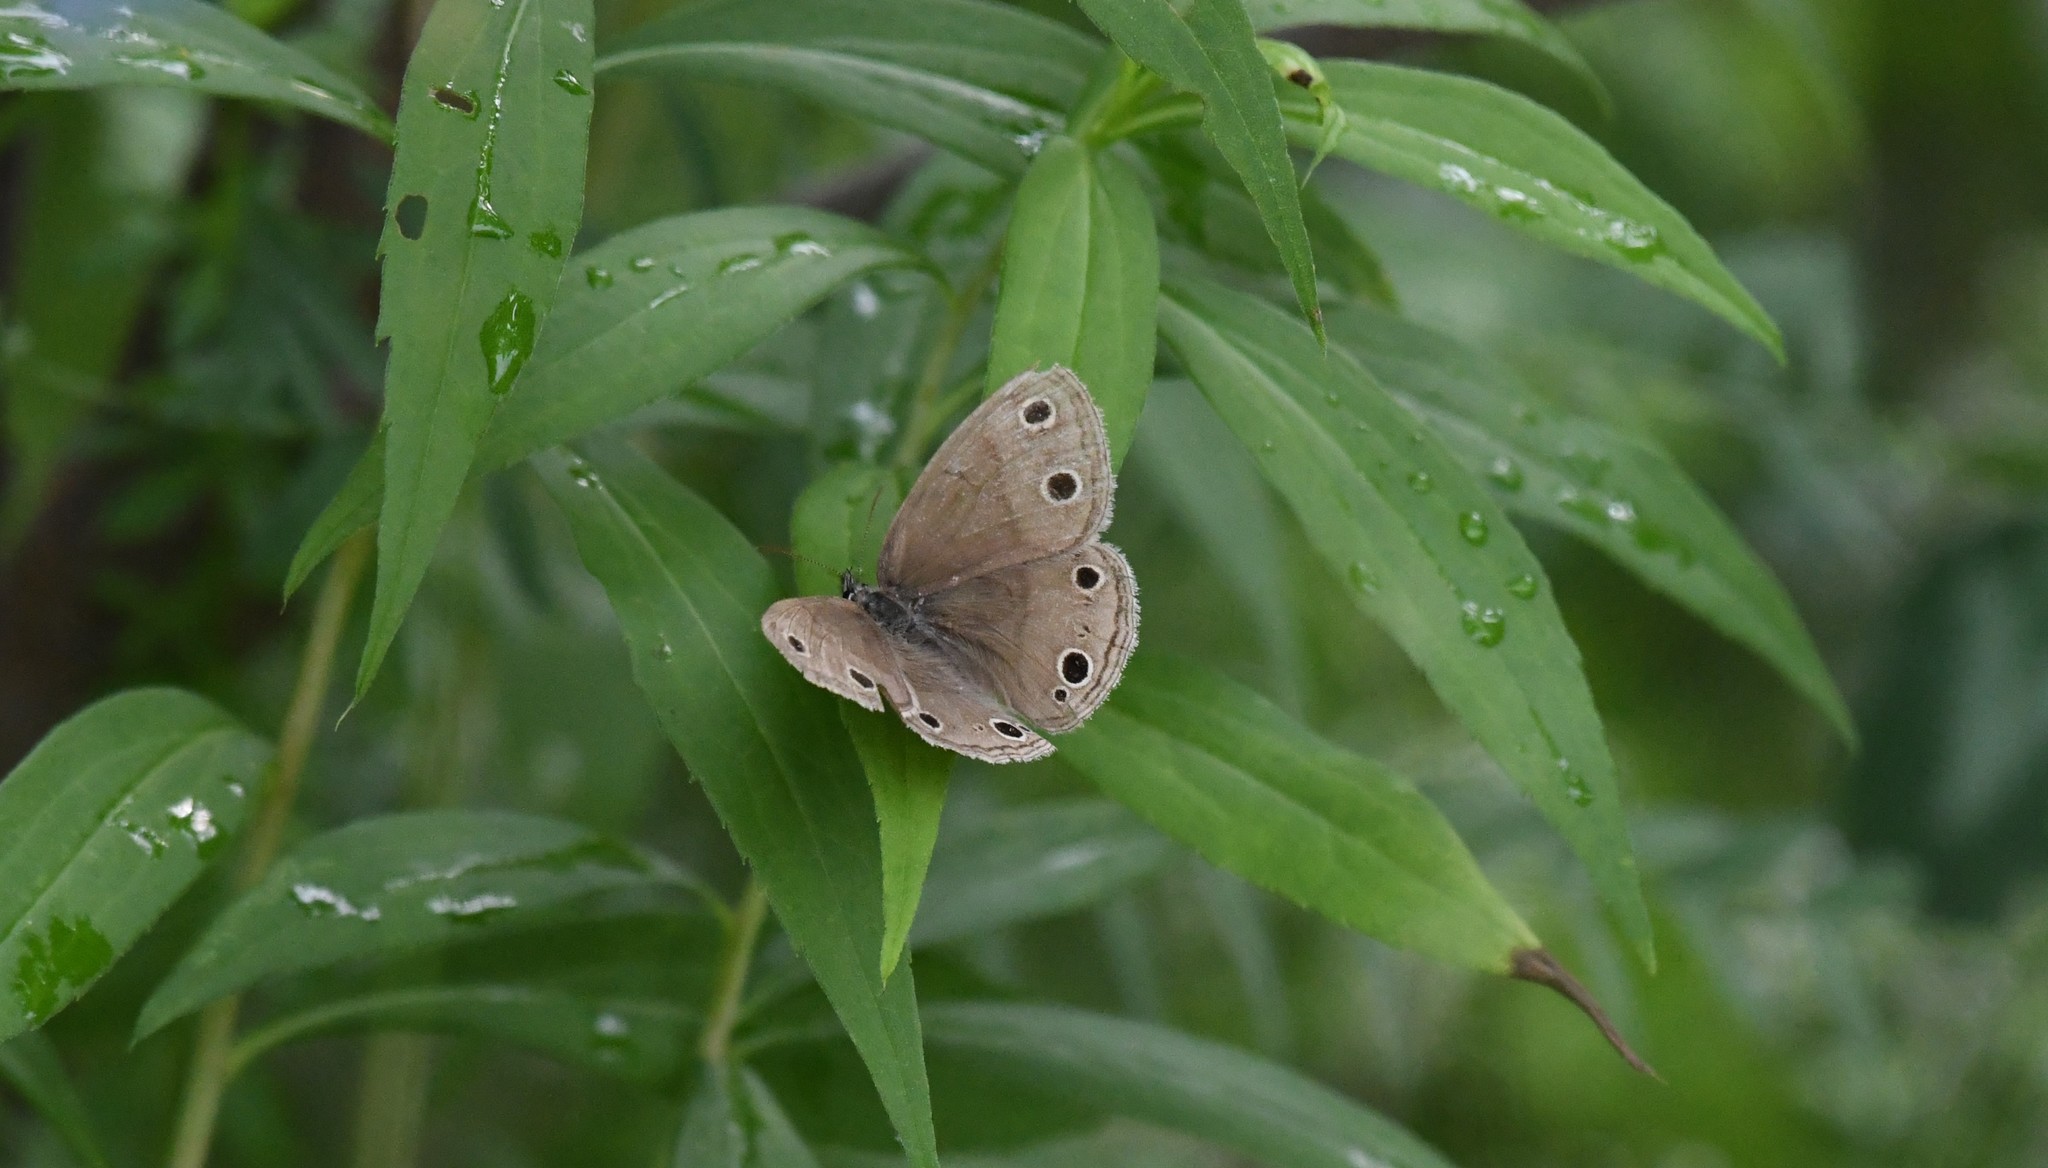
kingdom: Animalia
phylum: Arthropoda
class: Insecta
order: Lepidoptera
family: Nymphalidae
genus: Euptychia
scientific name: Euptychia cymela
